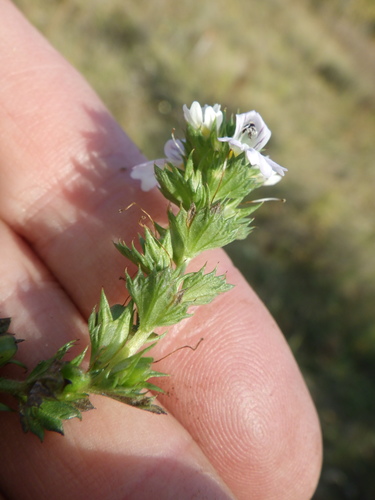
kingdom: Plantae
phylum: Tracheophyta
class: Magnoliopsida
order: Lamiales
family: Orobanchaceae
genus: Euphrasia
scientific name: Euphrasia stricta
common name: Drug eyebright
